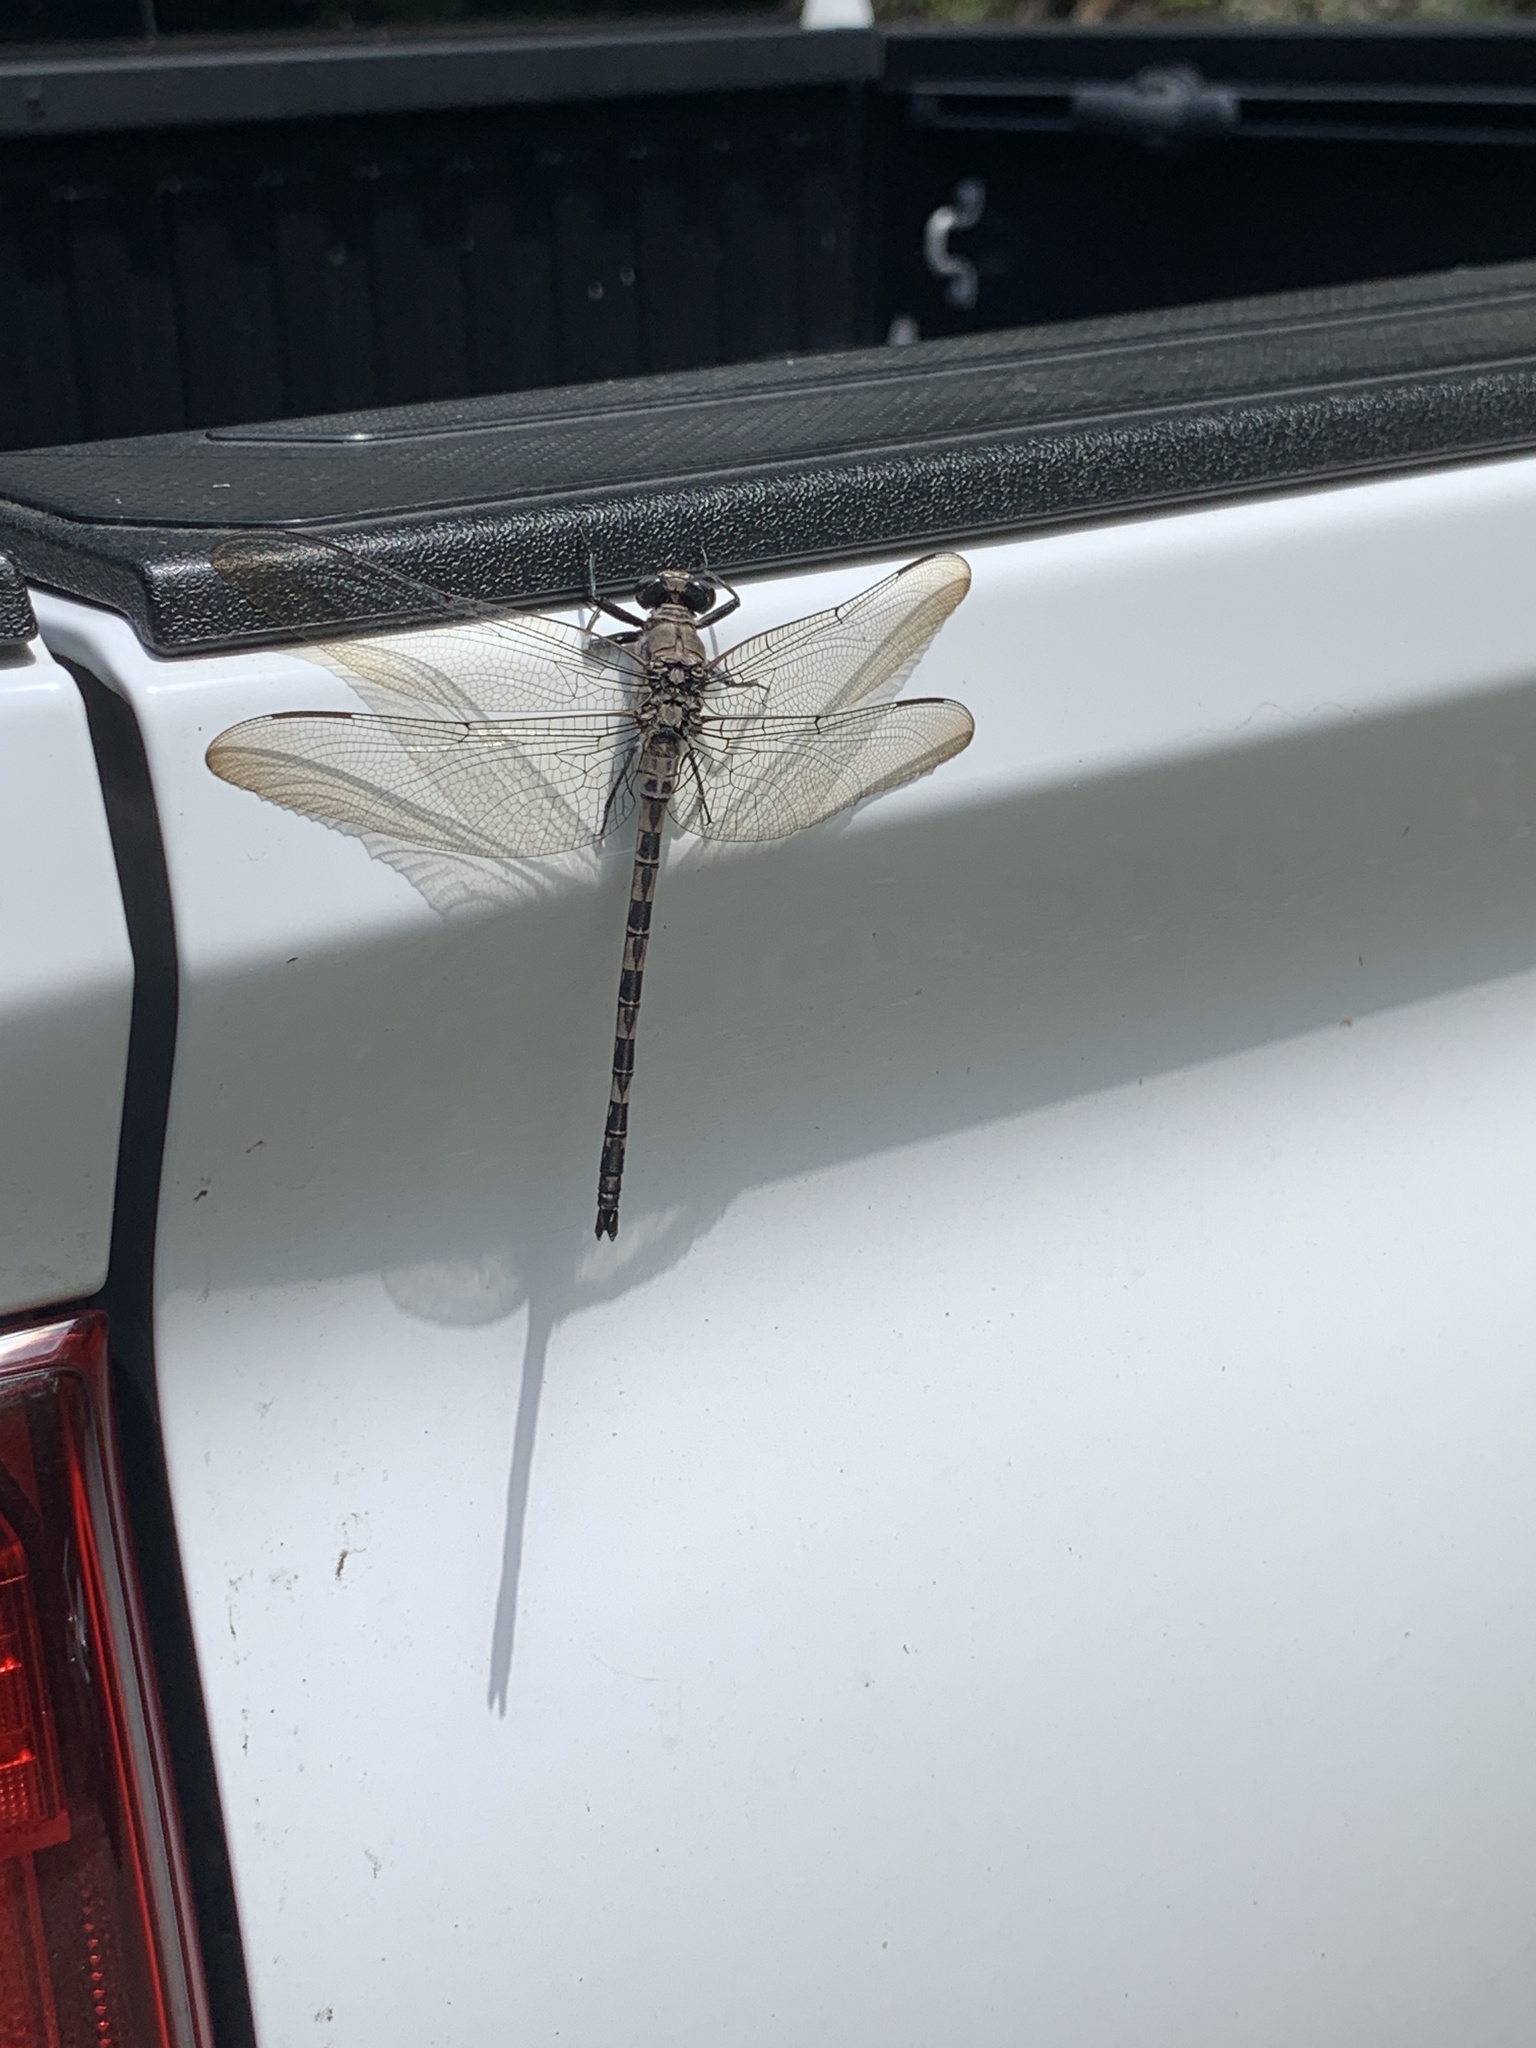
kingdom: Animalia
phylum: Arthropoda
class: Insecta
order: Odonata
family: Petaluridae
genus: Tachopteryx
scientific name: Tachopteryx thoreyi
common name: Gray petaltail
